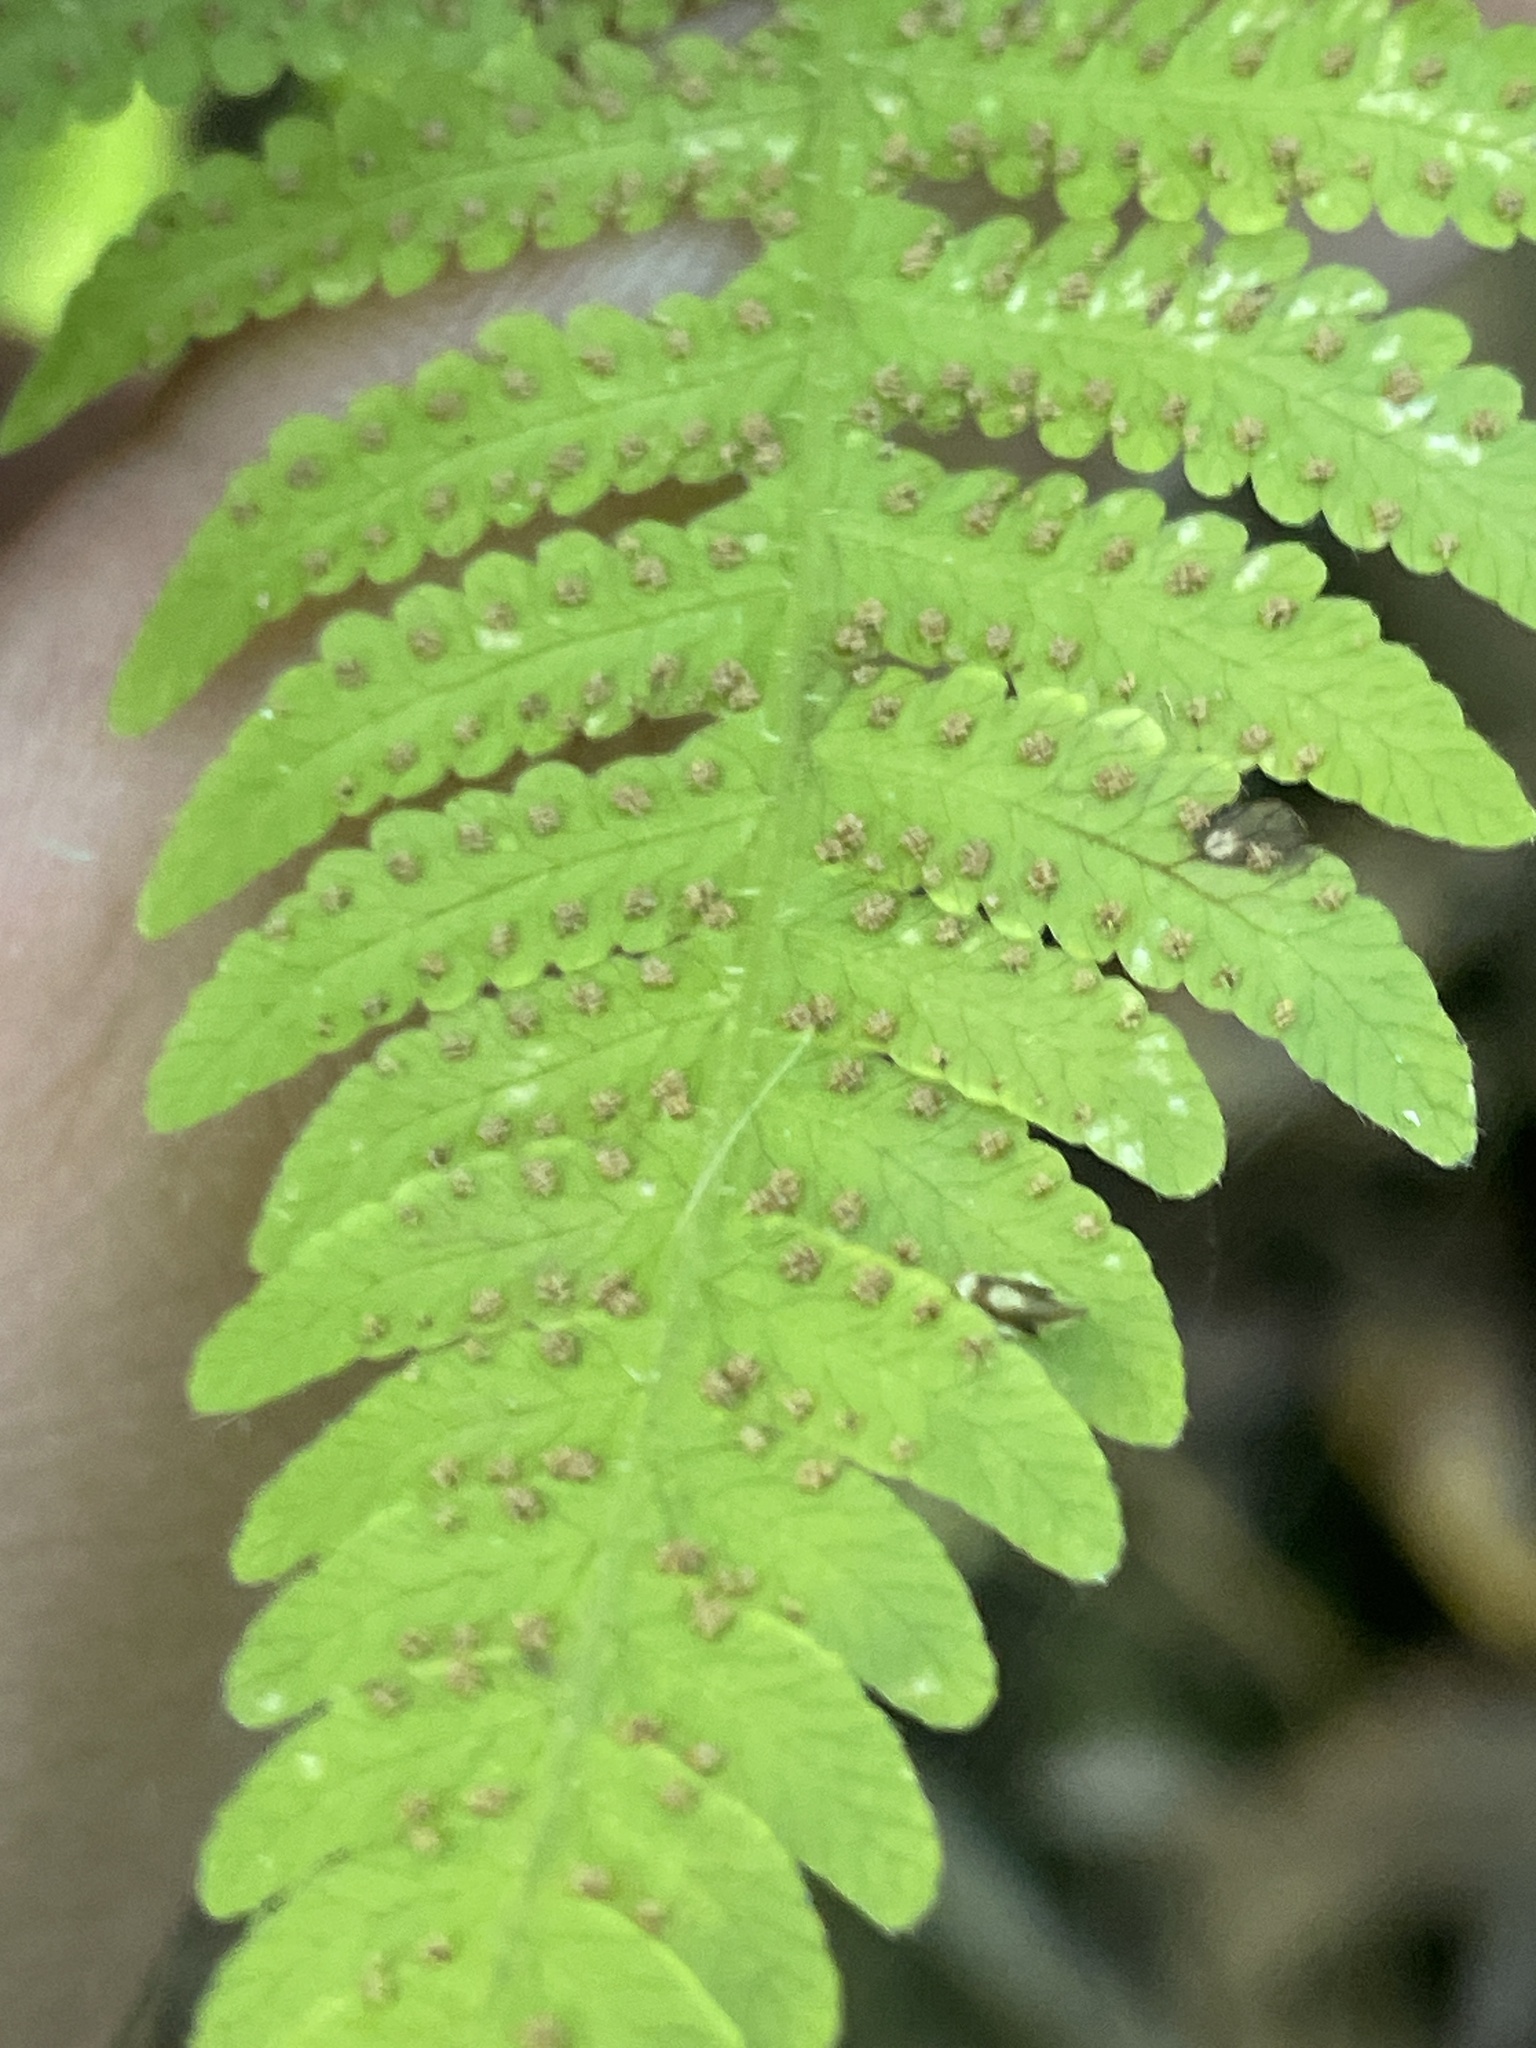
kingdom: Plantae
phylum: Tracheophyta
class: Polypodiopsida
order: Polypodiales
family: Thelypteridaceae
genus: Phegopteris
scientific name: Phegopteris hexagonoptera
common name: Broad beech fern
